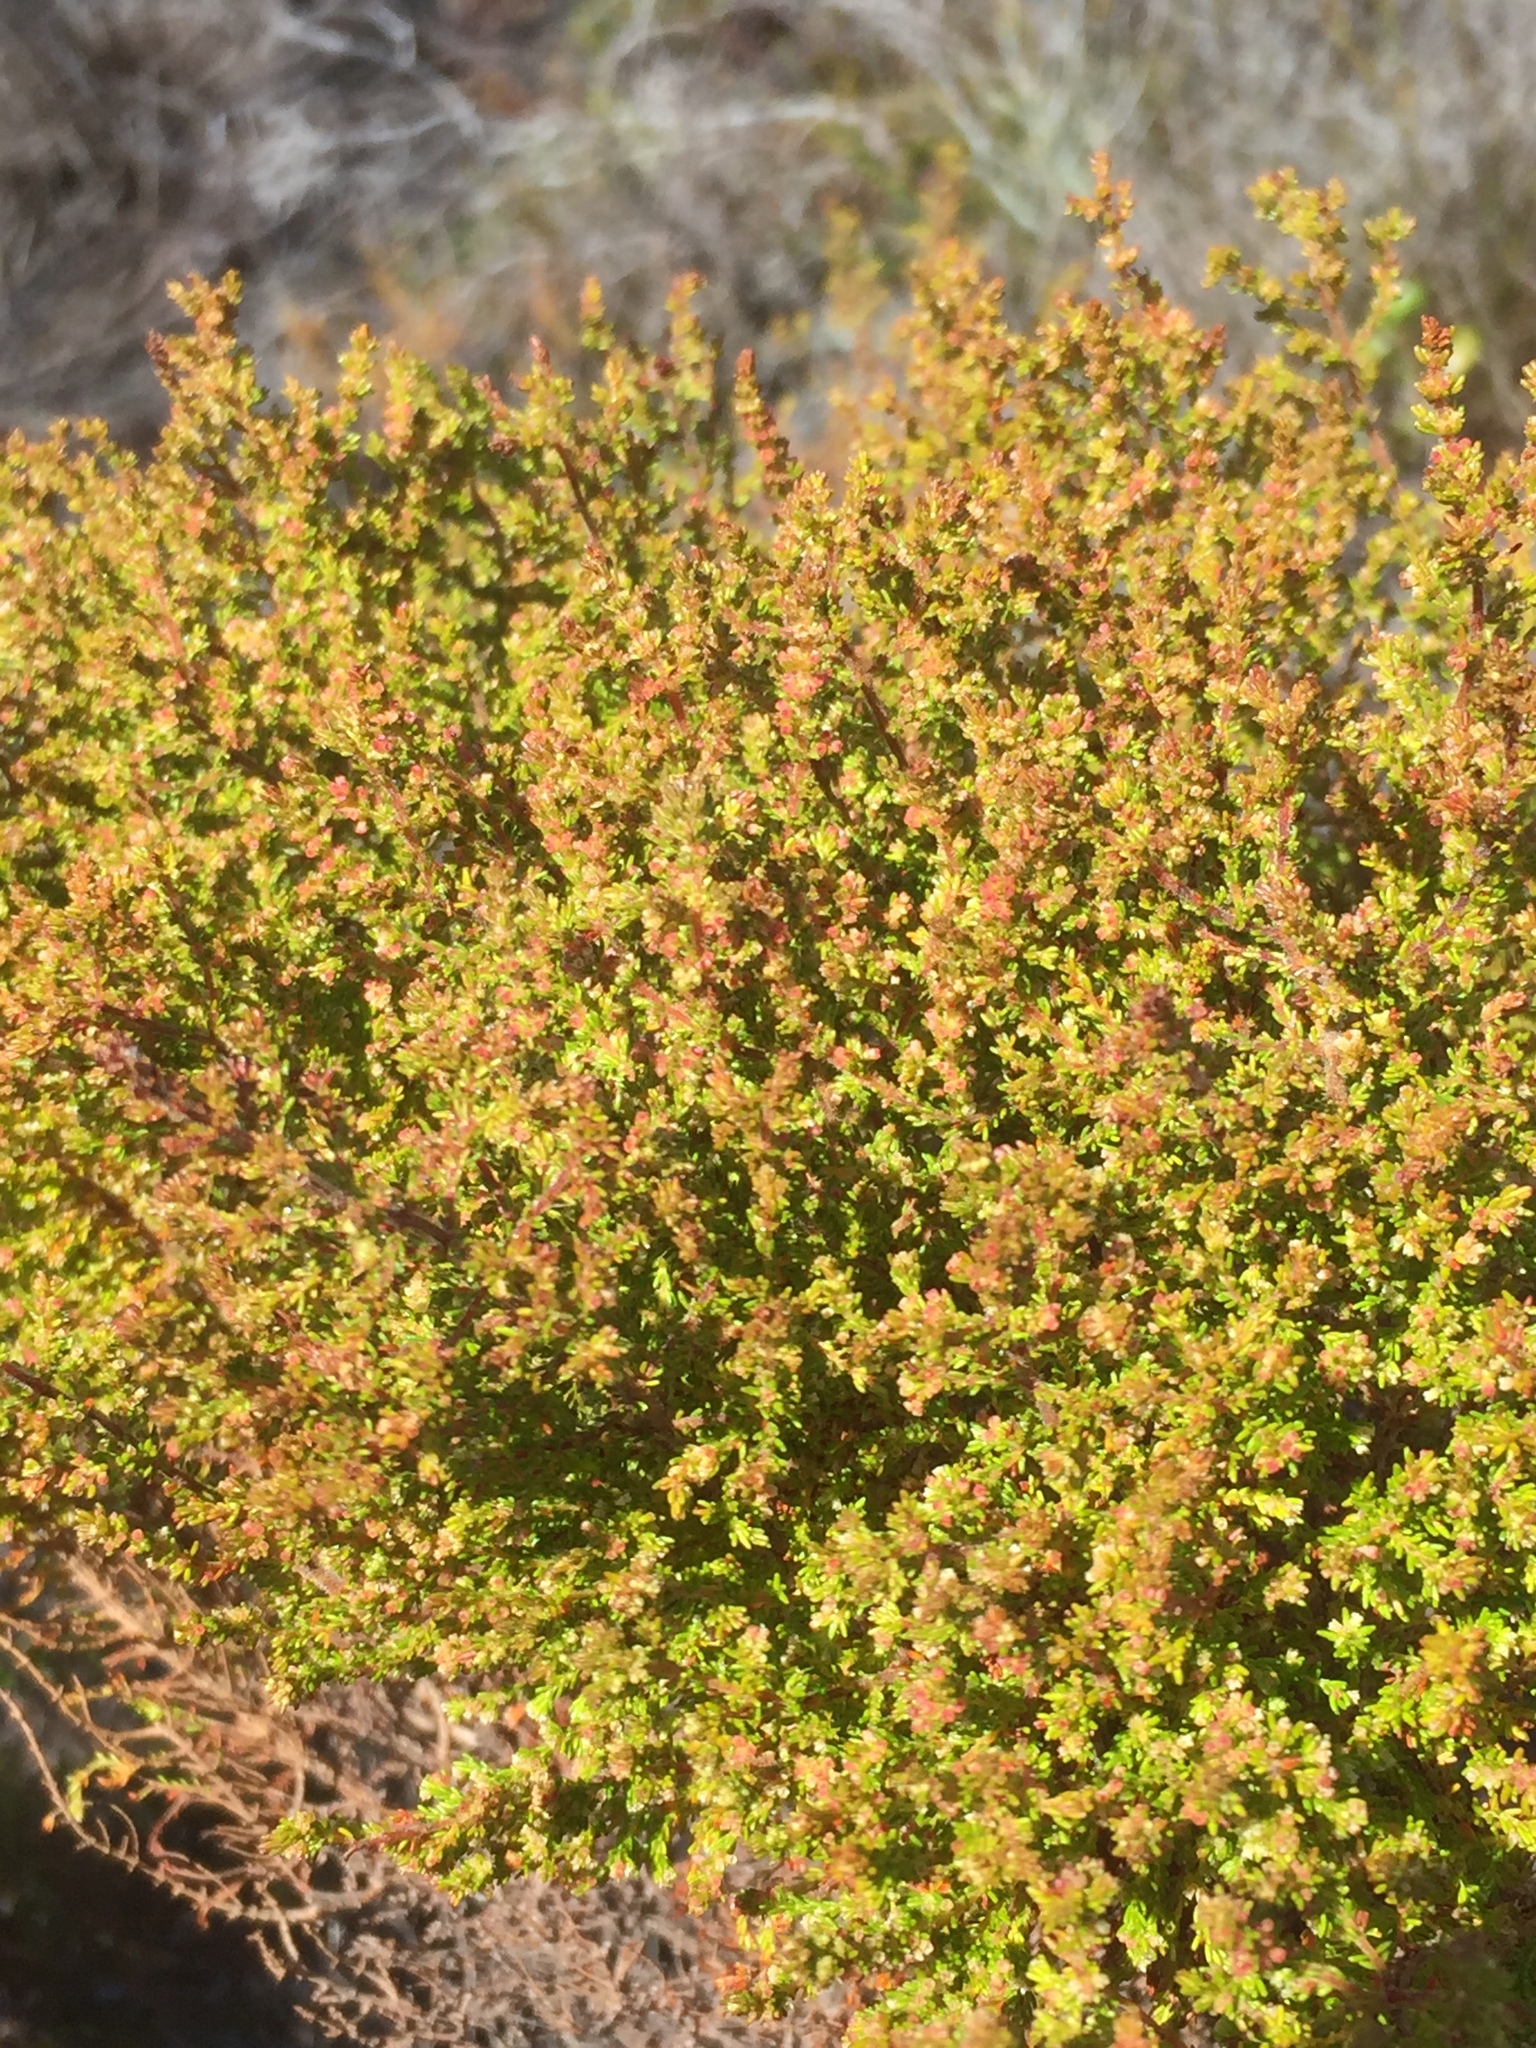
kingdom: Plantae
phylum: Tracheophyta
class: Magnoliopsida
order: Ericales
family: Ericaceae
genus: Erica
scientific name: Erica muscosa
